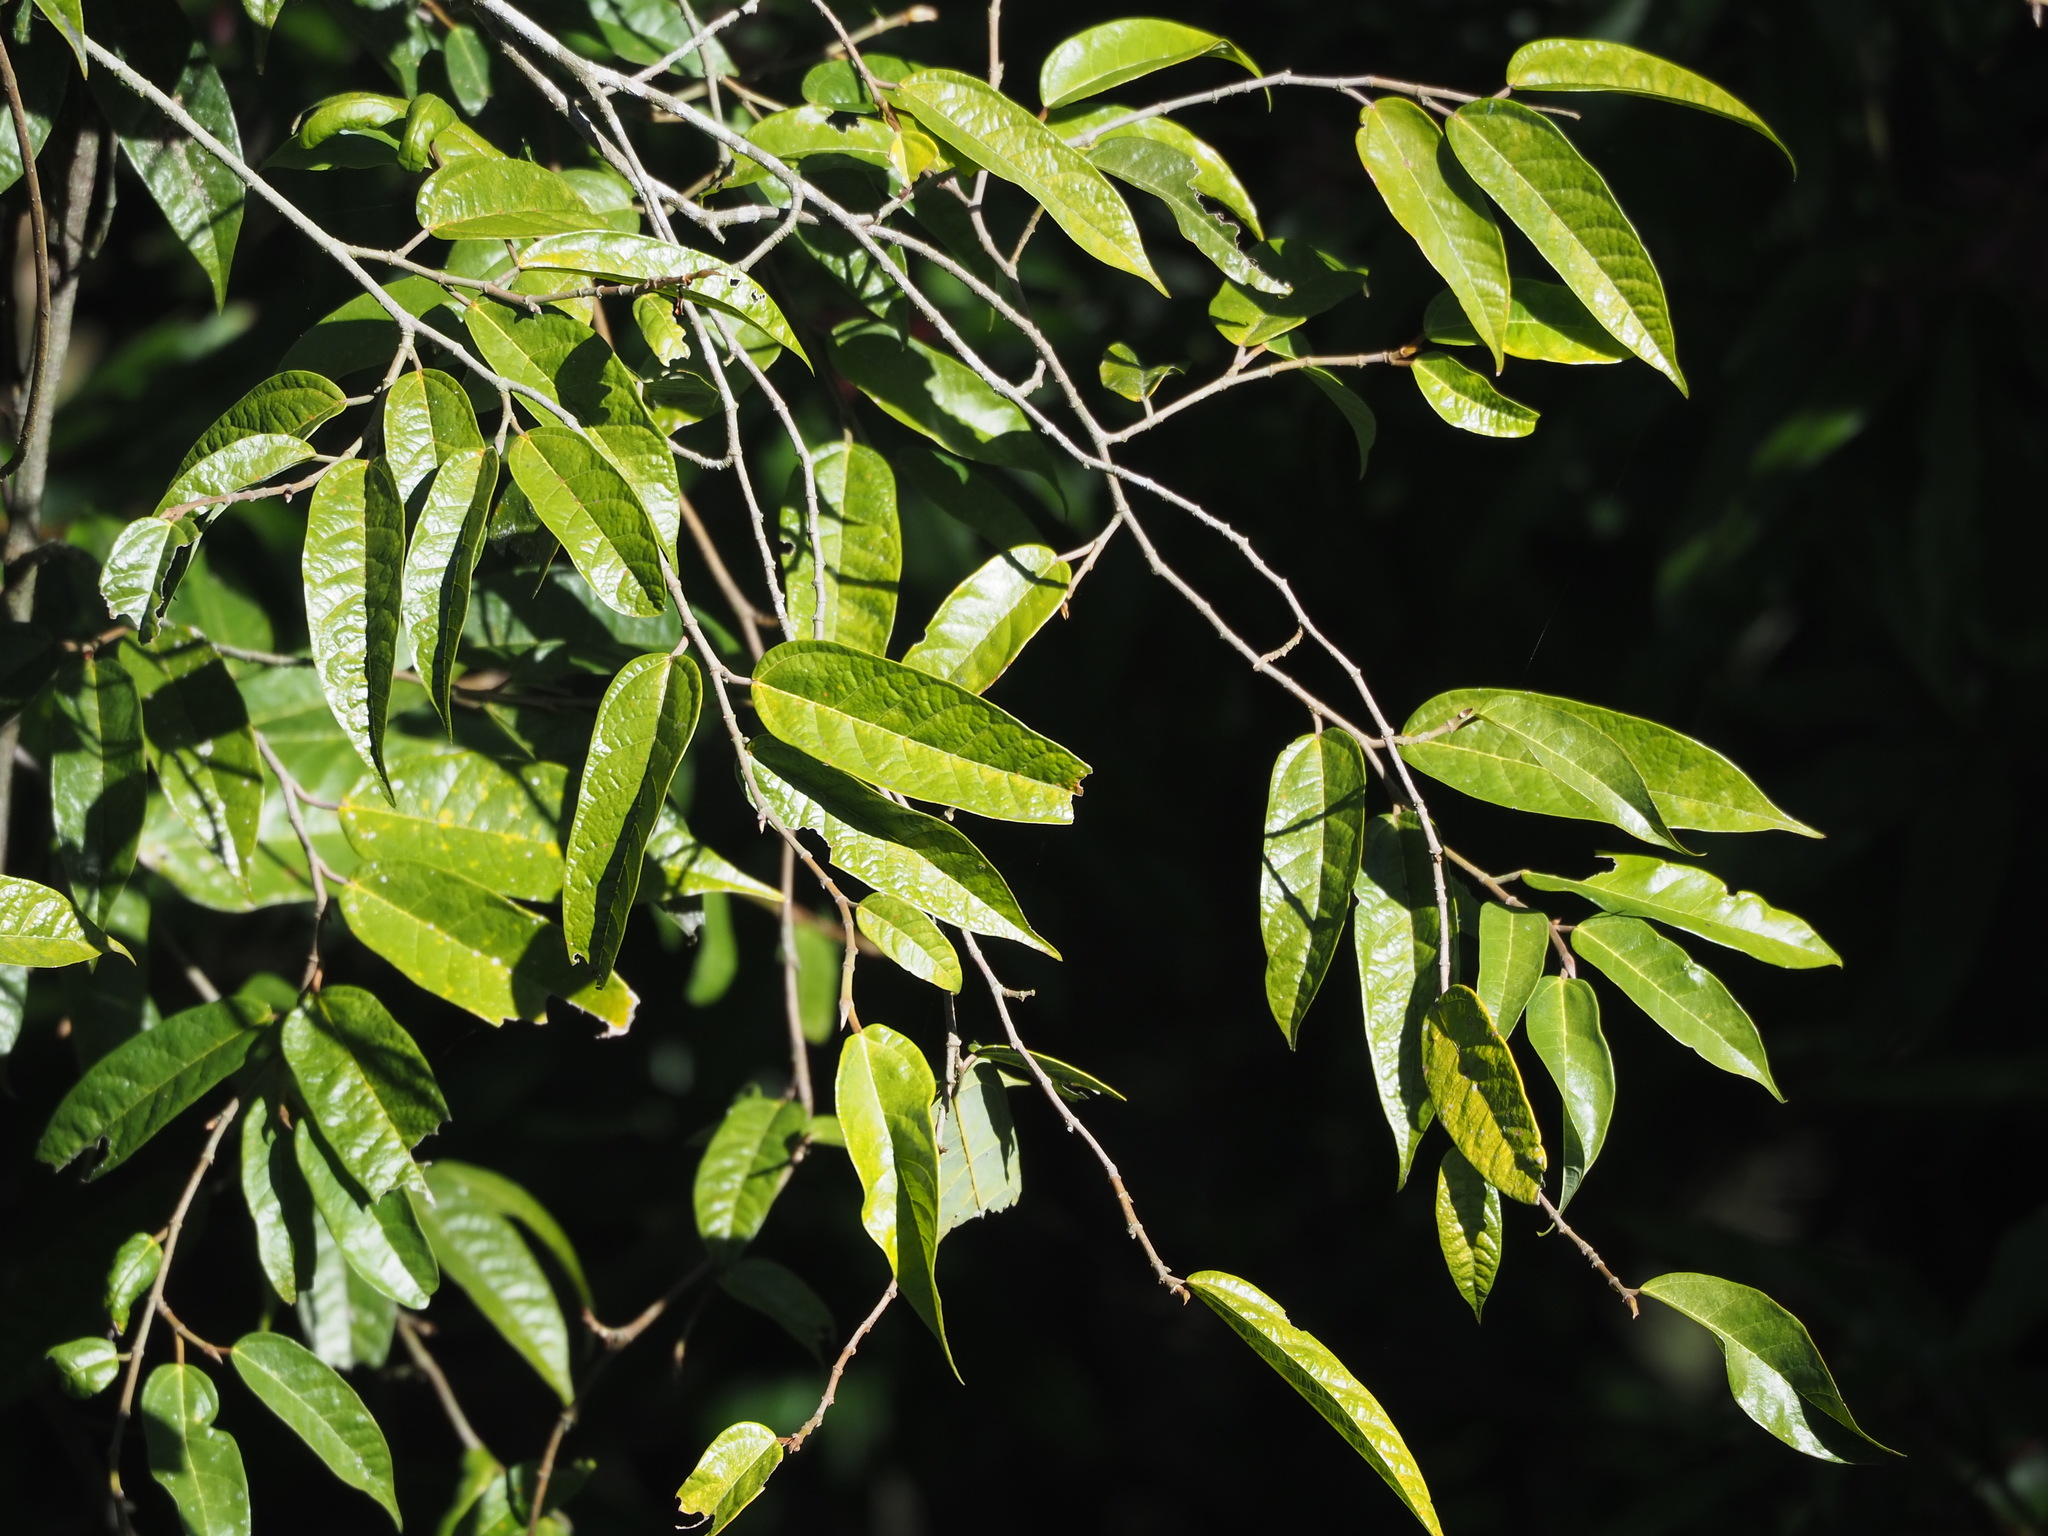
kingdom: Plantae
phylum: Tracheophyta
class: Magnoliopsida
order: Rosales
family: Moraceae
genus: Ficus
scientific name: Ficus sarmentosa
